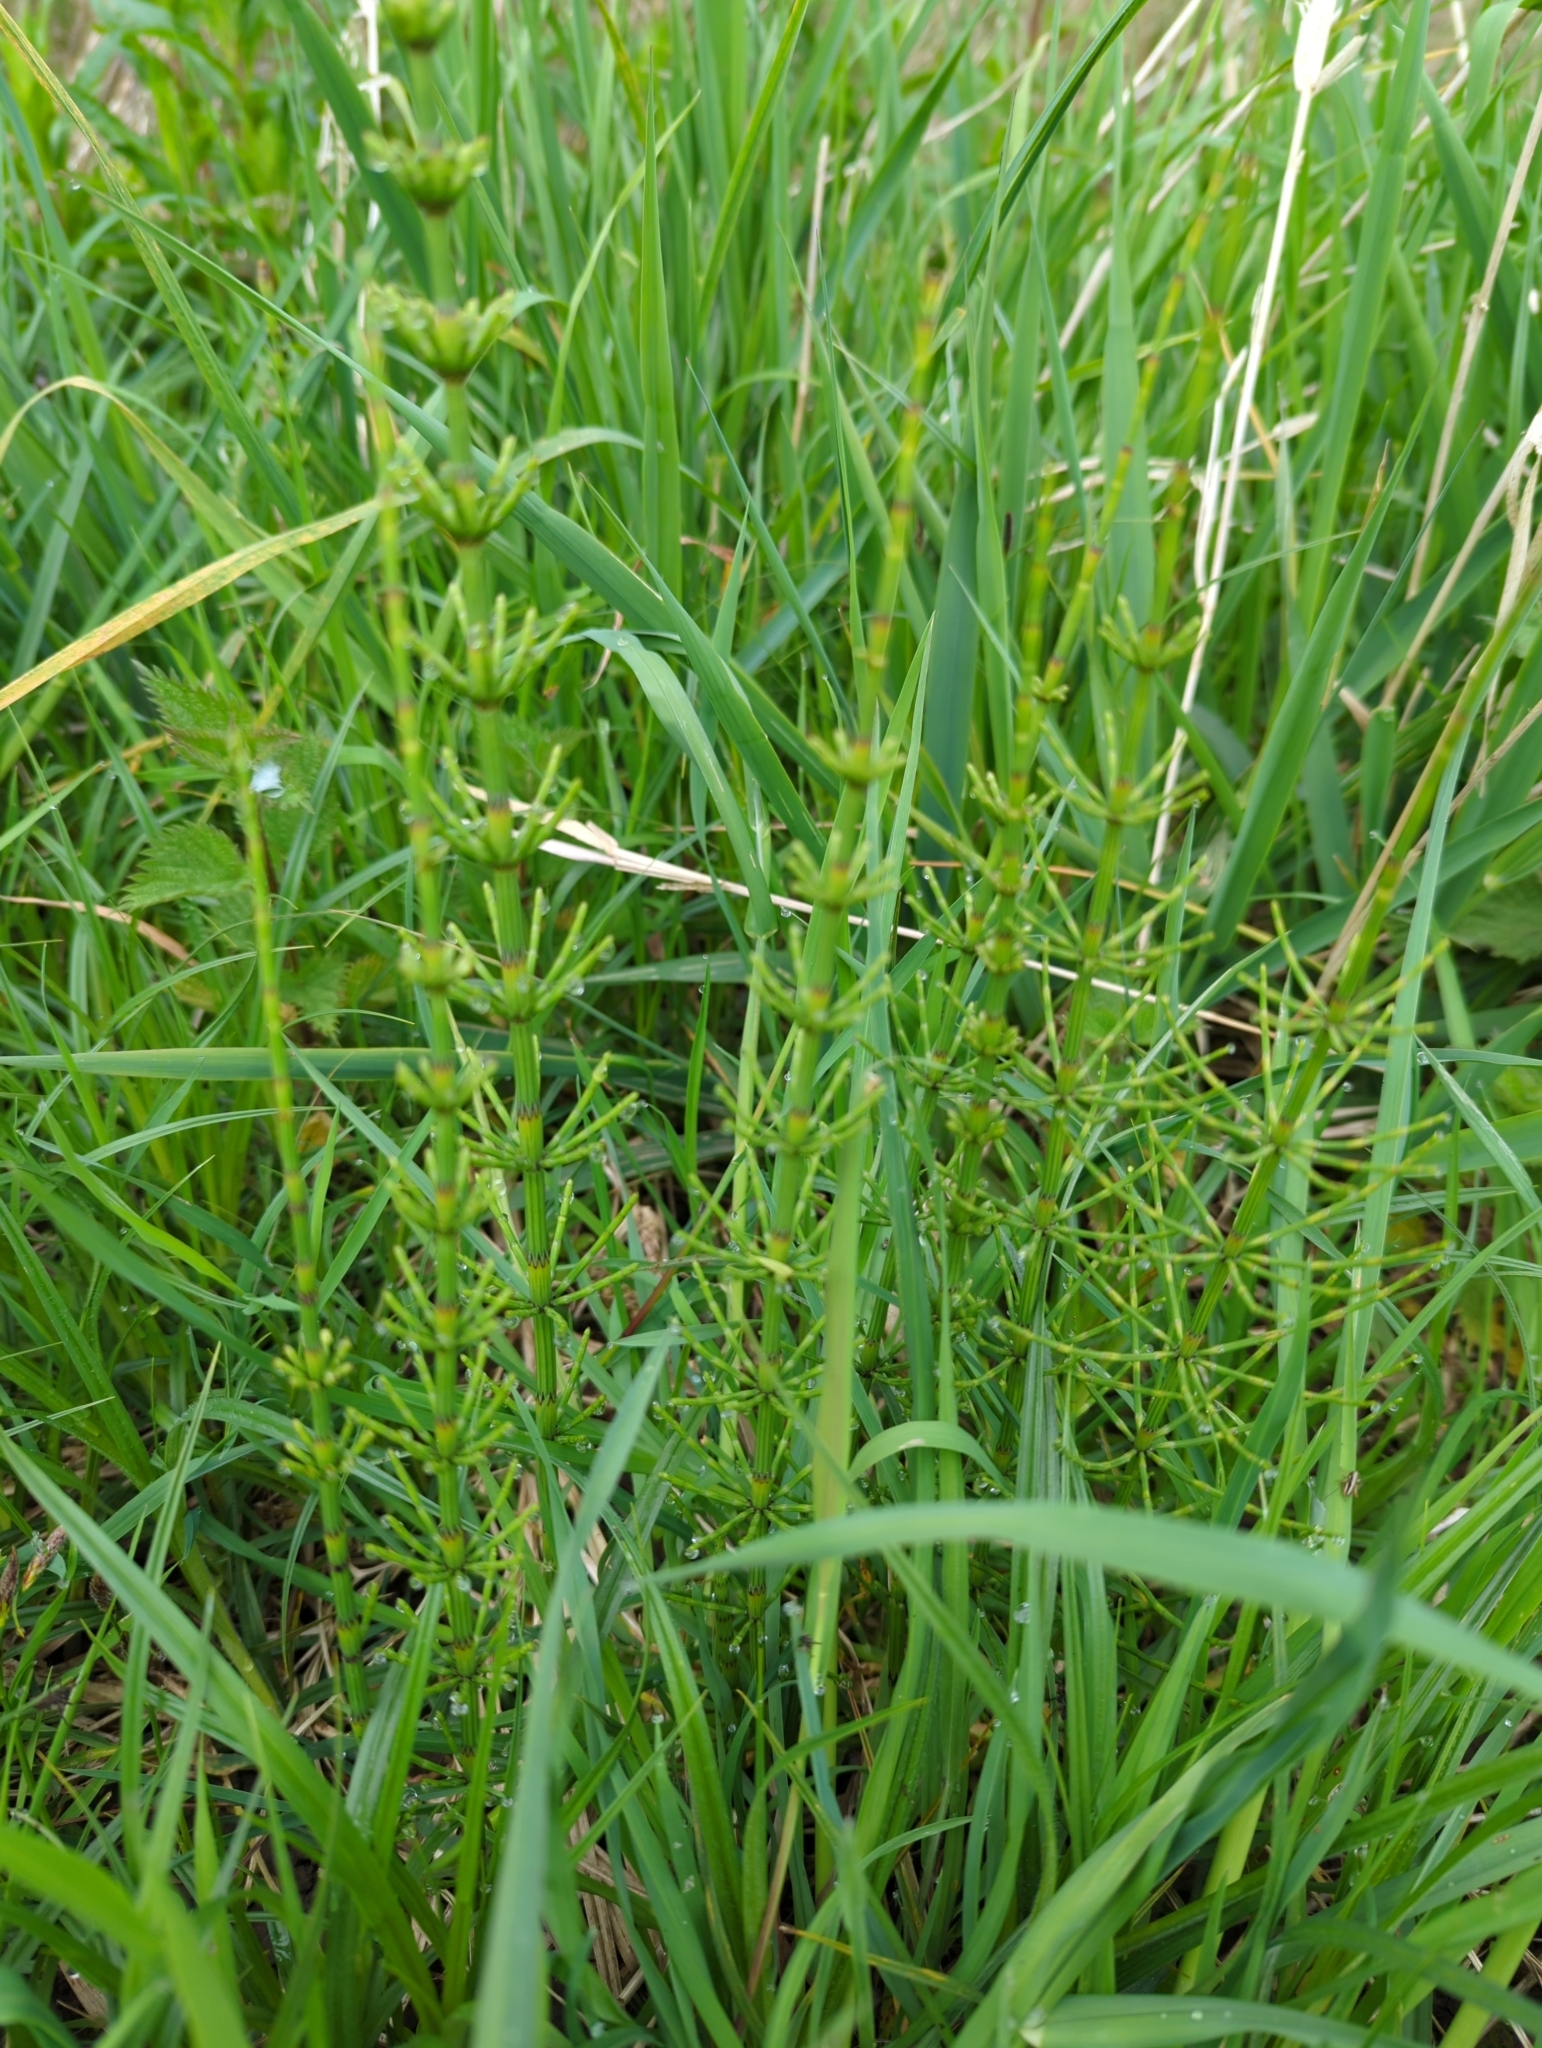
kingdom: Plantae
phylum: Tracheophyta
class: Polypodiopsida
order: Equisetales
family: Equisetaceae
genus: Equisetum
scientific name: Equisetum palustre
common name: Marsh horsetail
